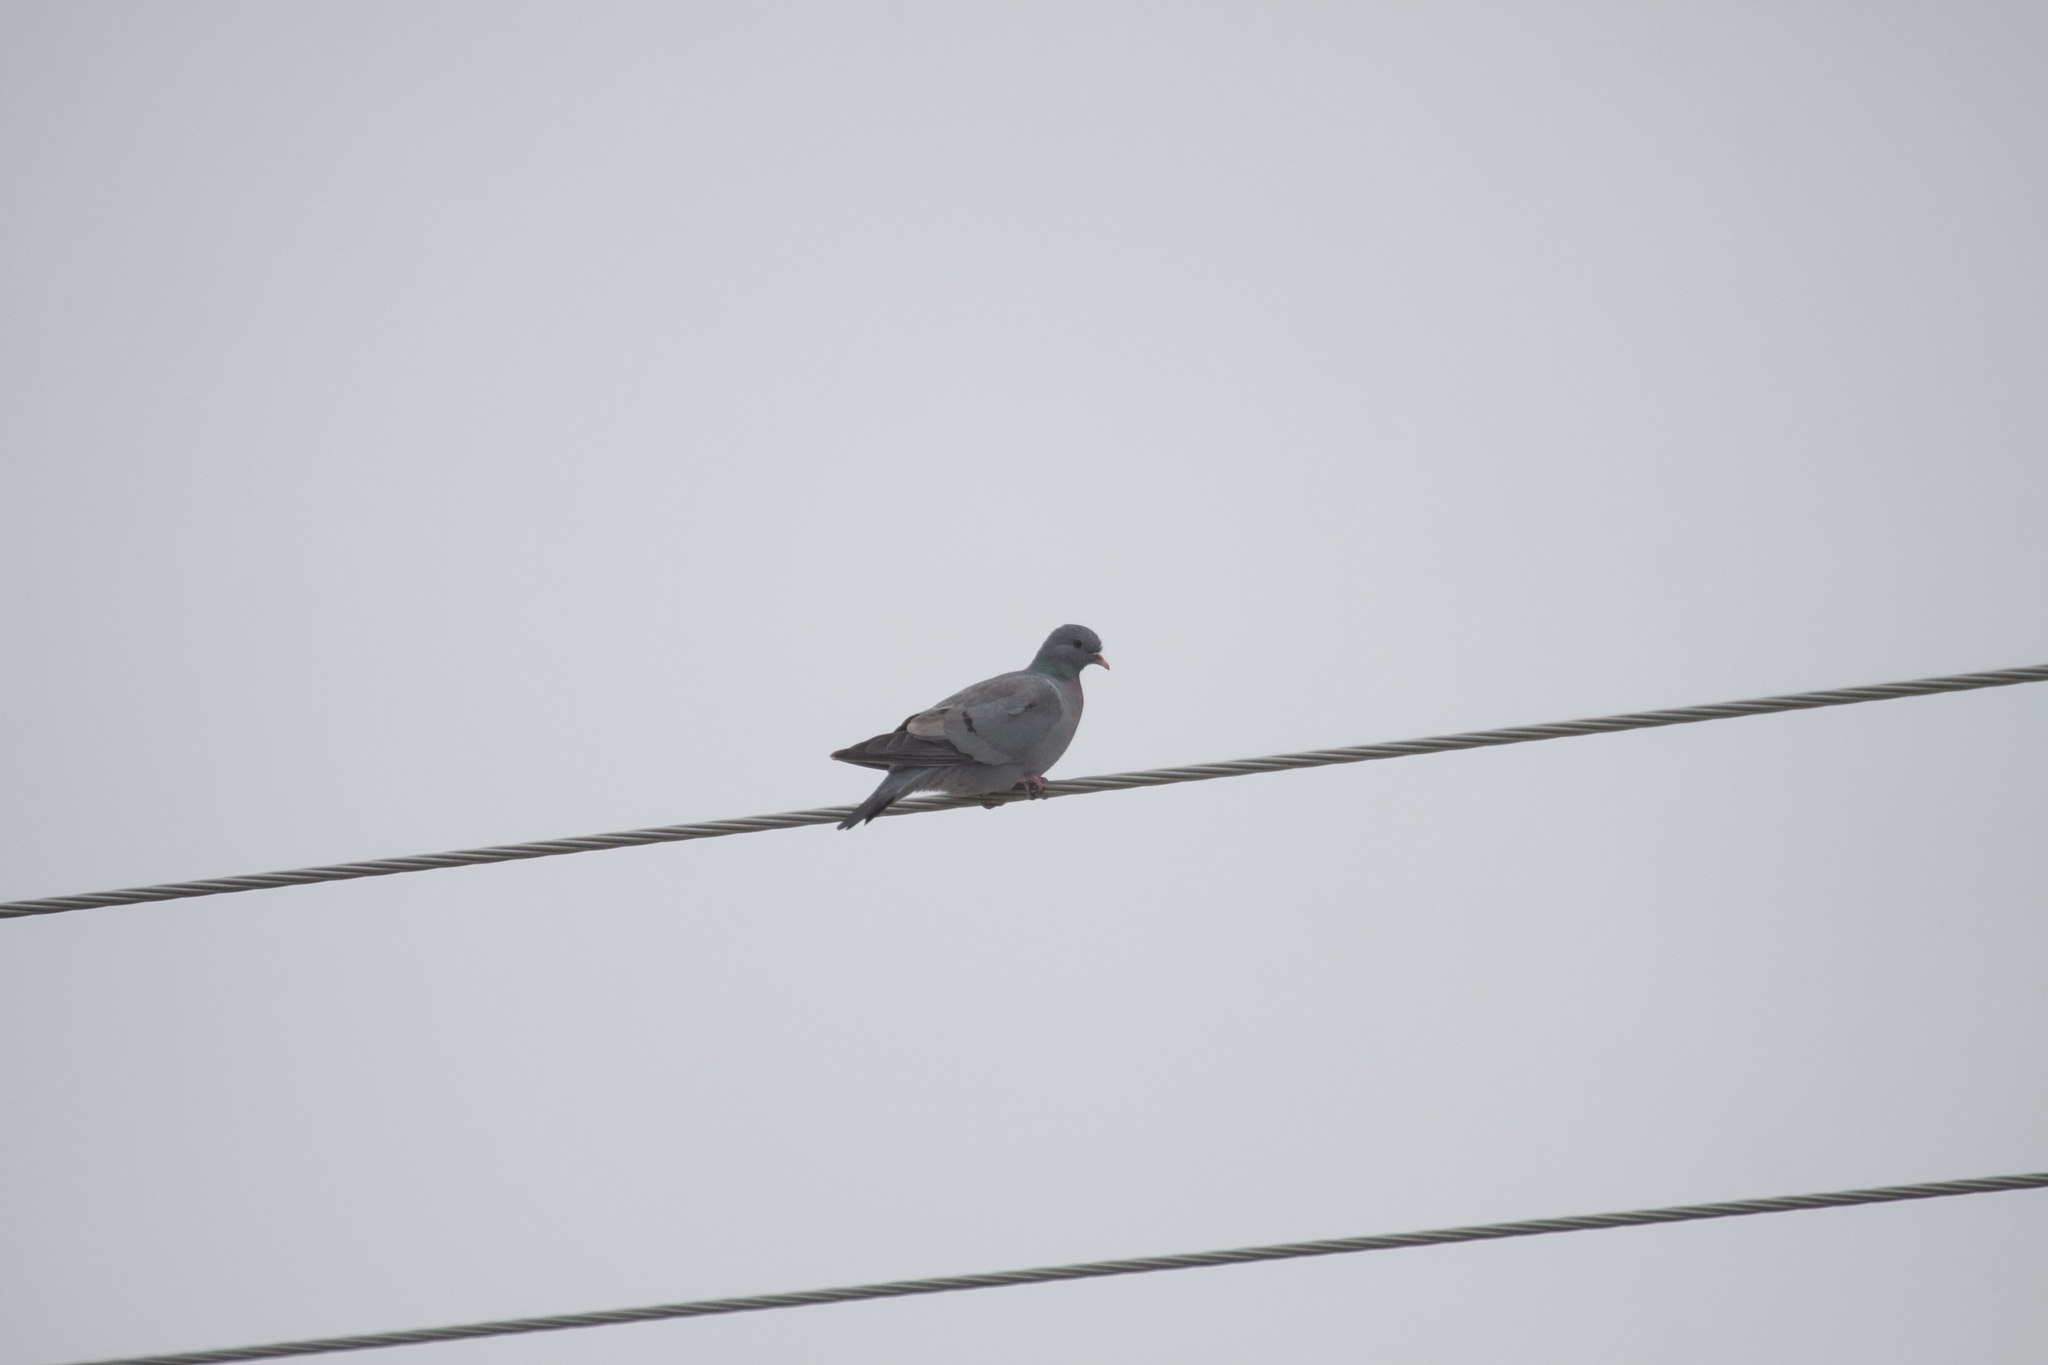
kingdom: Animalia
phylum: Chordata
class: Aves
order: Columbiformes
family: Columbidae
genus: Columba
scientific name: Columba oenas
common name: Stock dove
